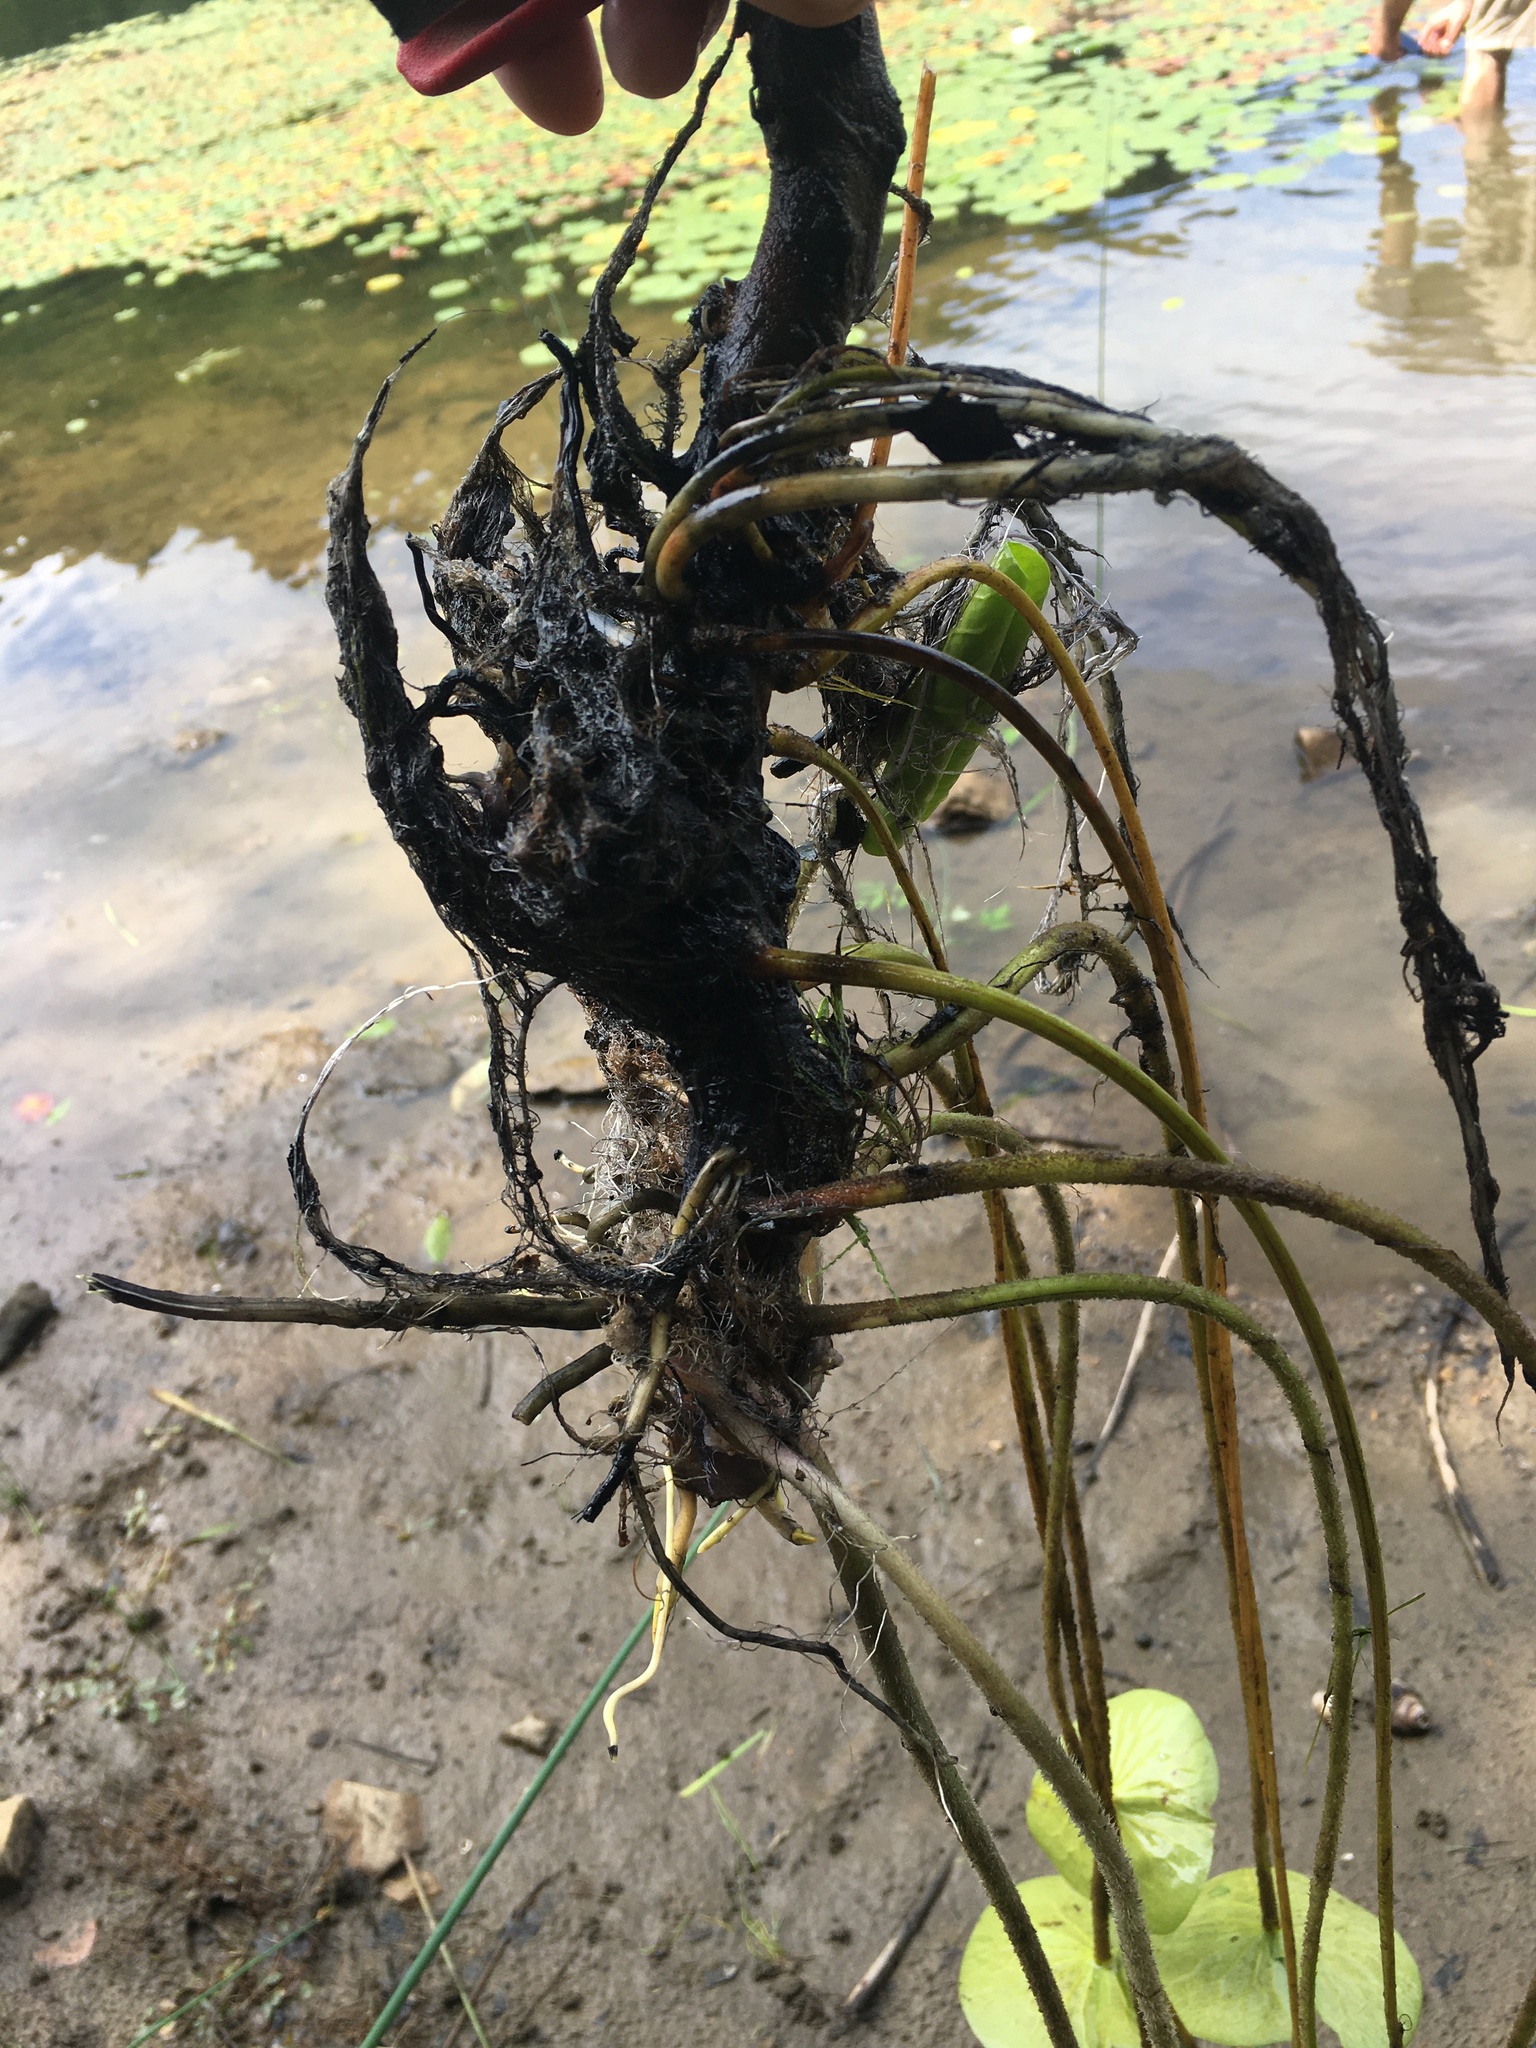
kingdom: Plantae
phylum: Tracheophyta
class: Magnoliopsida
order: Nymphaeales
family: Nymphaeaceae
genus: Nymphaea
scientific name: Nymphaea odorata
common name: Fragrant water-lily
